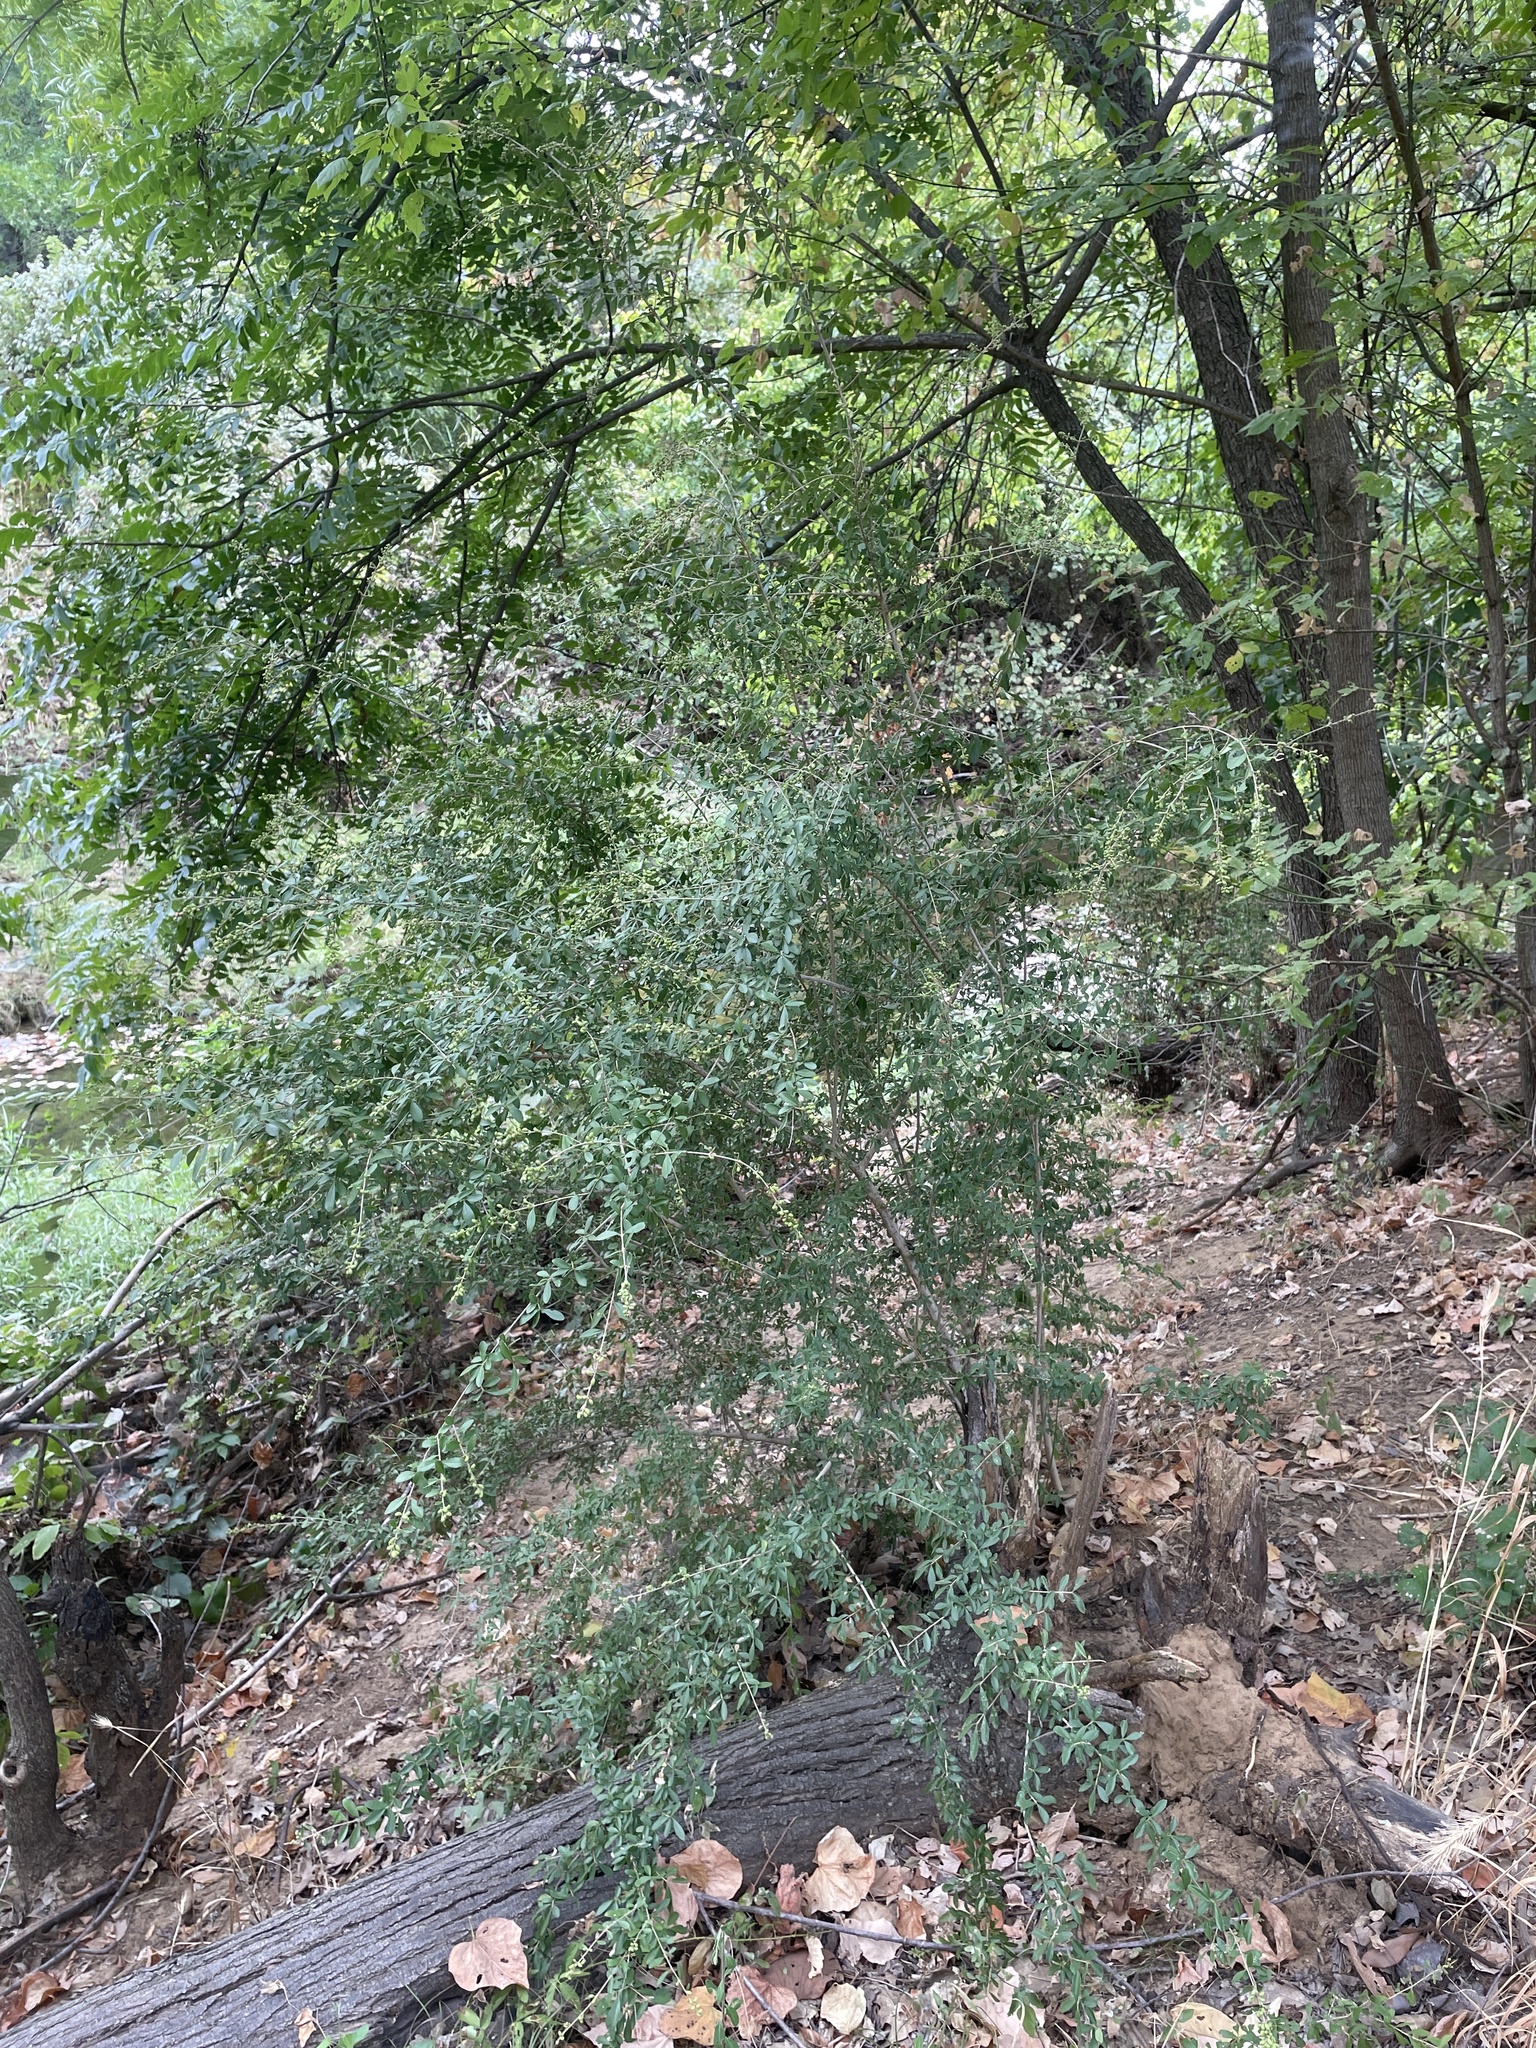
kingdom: Plantae
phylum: Tracheophyta
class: Magnoliopsida
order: Lamiales
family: Oleaceae
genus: Ligustrum
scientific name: Ligustrum quihoui
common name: Waxyleaf privet
